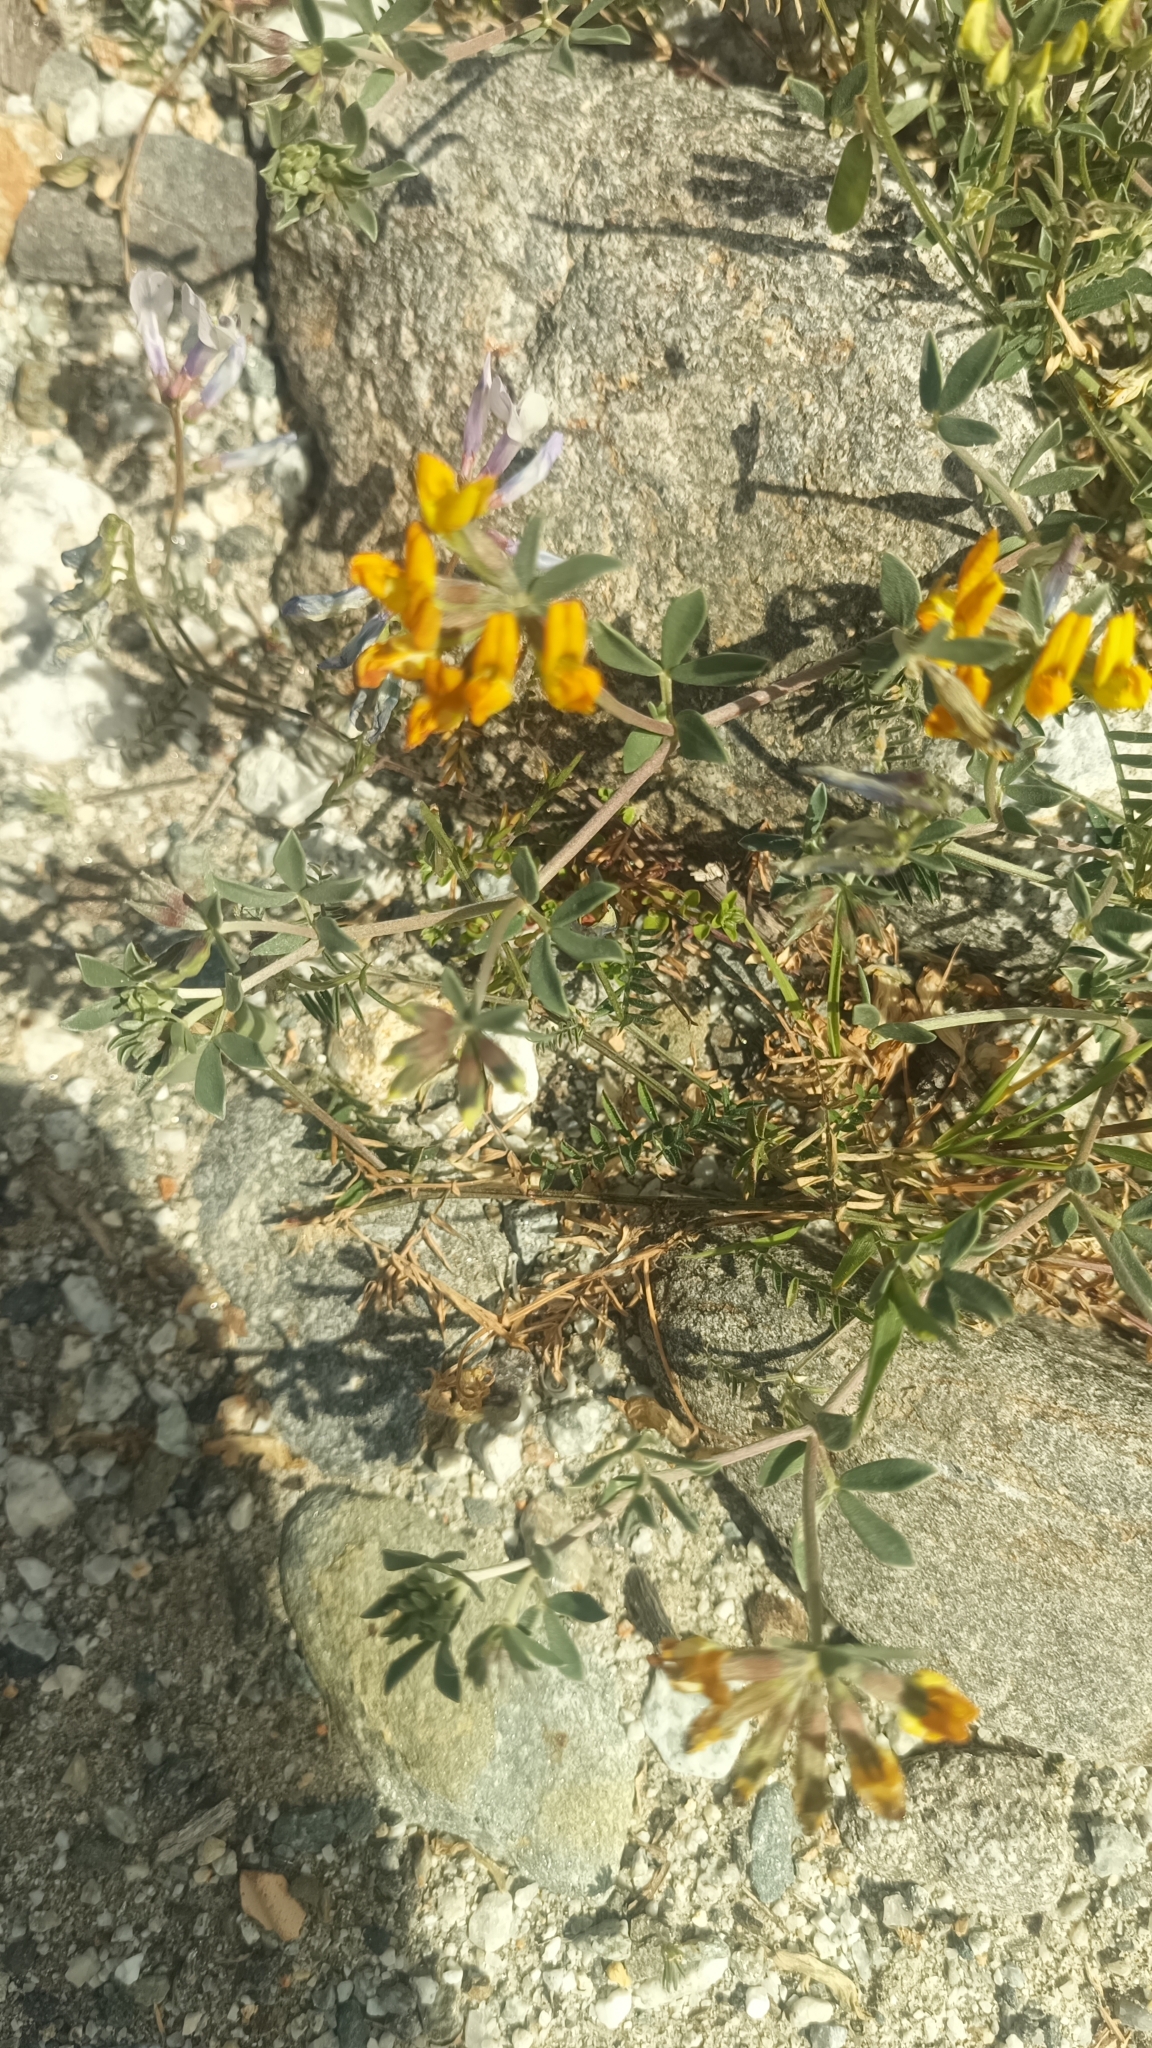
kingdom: Plantae
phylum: Tracheophyta
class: Magnoliopsida
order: Fabales
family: Fabaceae
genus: Lotus
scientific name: Lotus cytisoides
